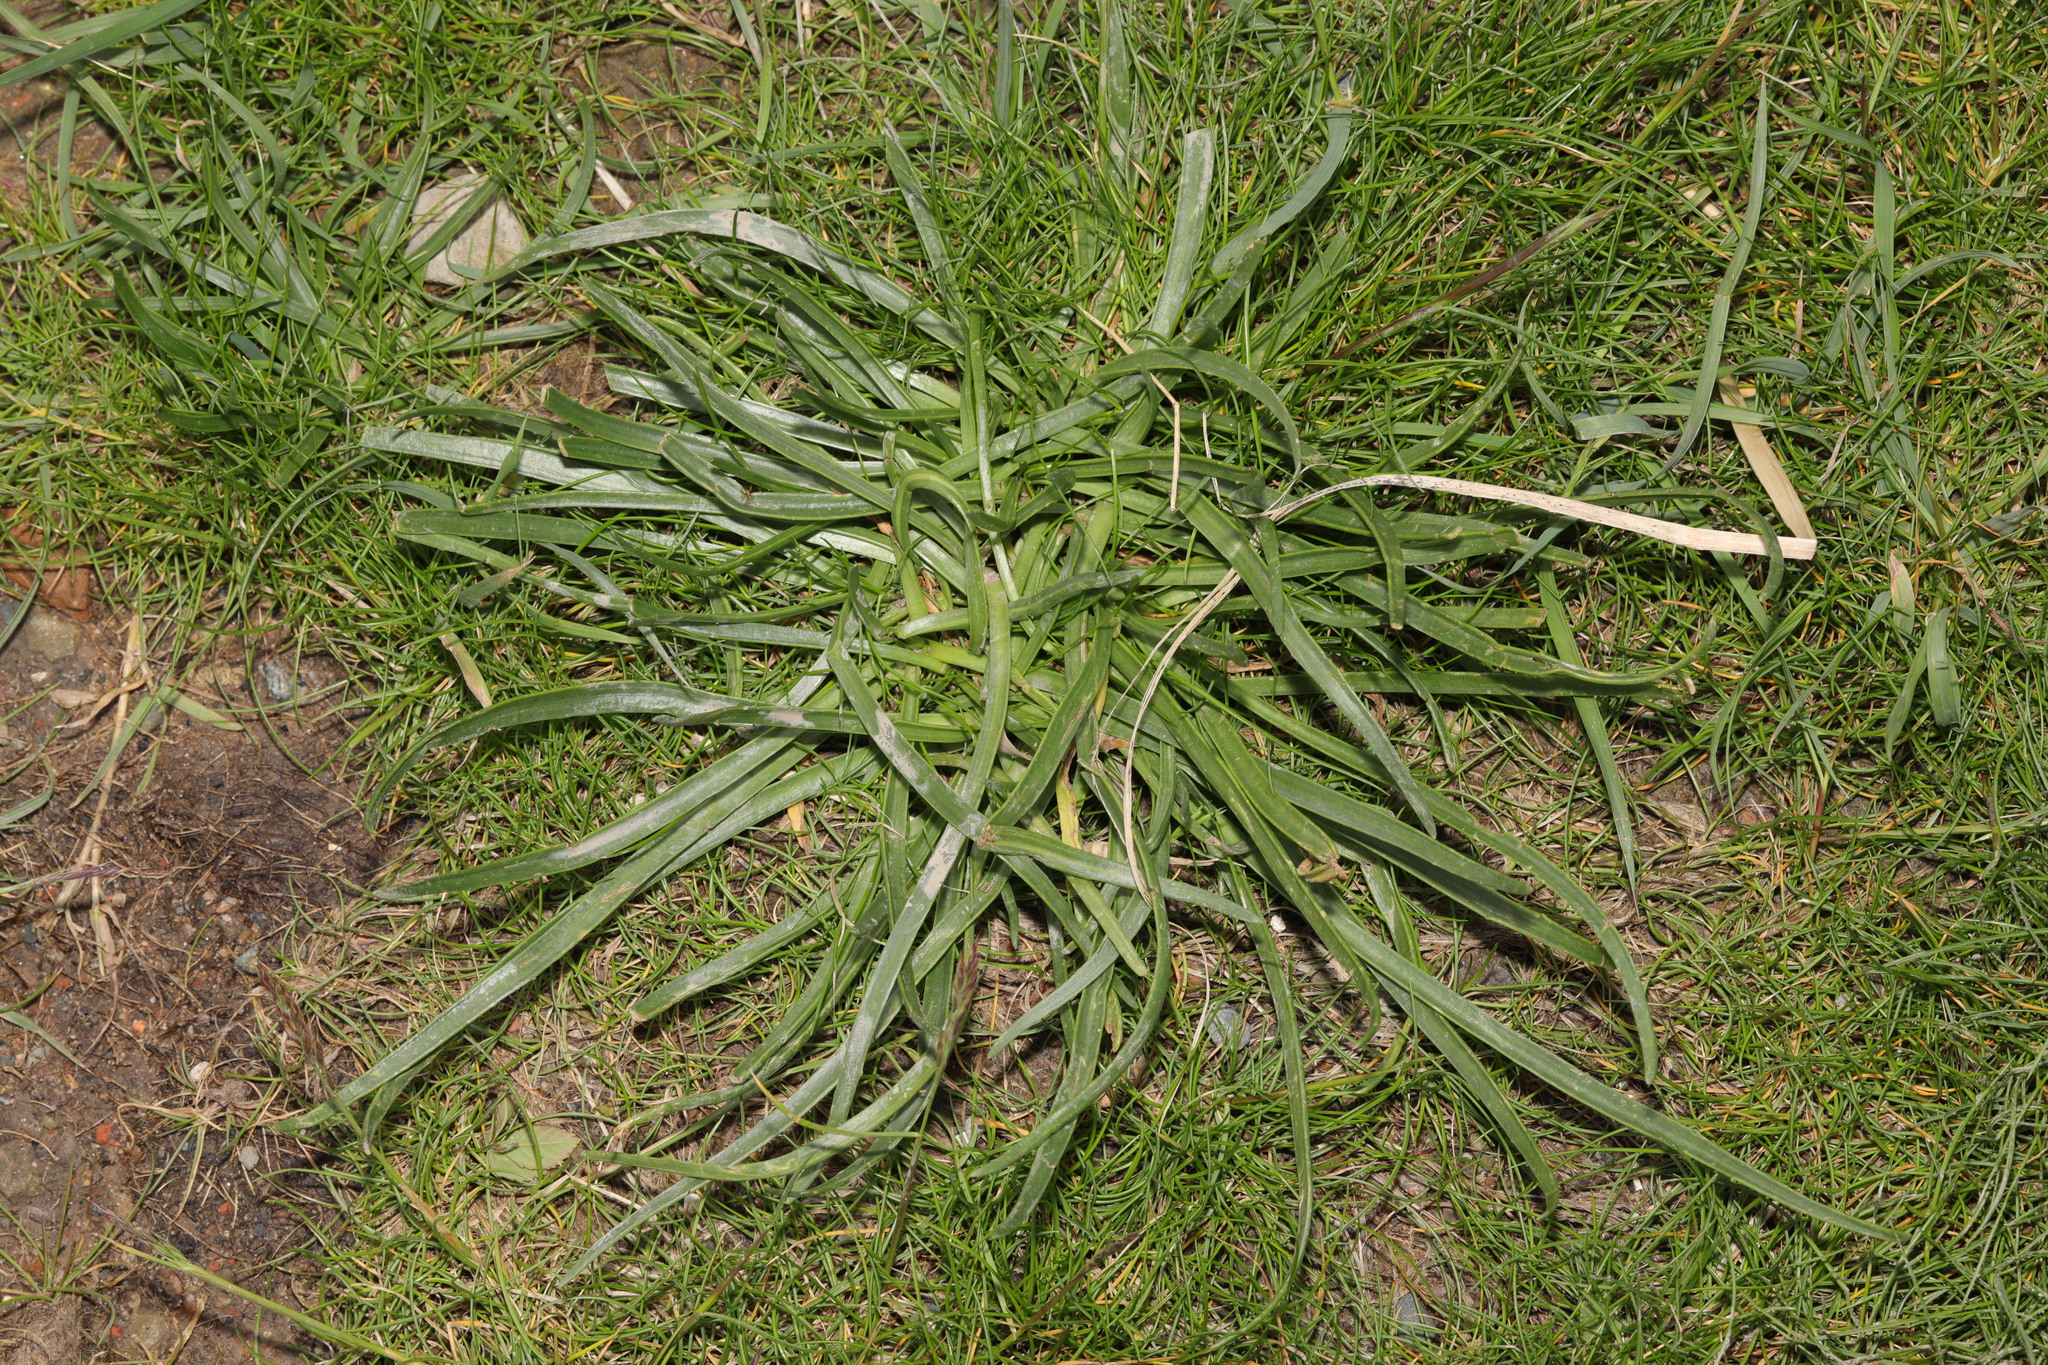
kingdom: Plantae
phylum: Tracheophyta
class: Magnoliopsida
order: Lamiales
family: Plantaginaceae
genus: Plantago
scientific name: Plantago maritima
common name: Sea plantain
